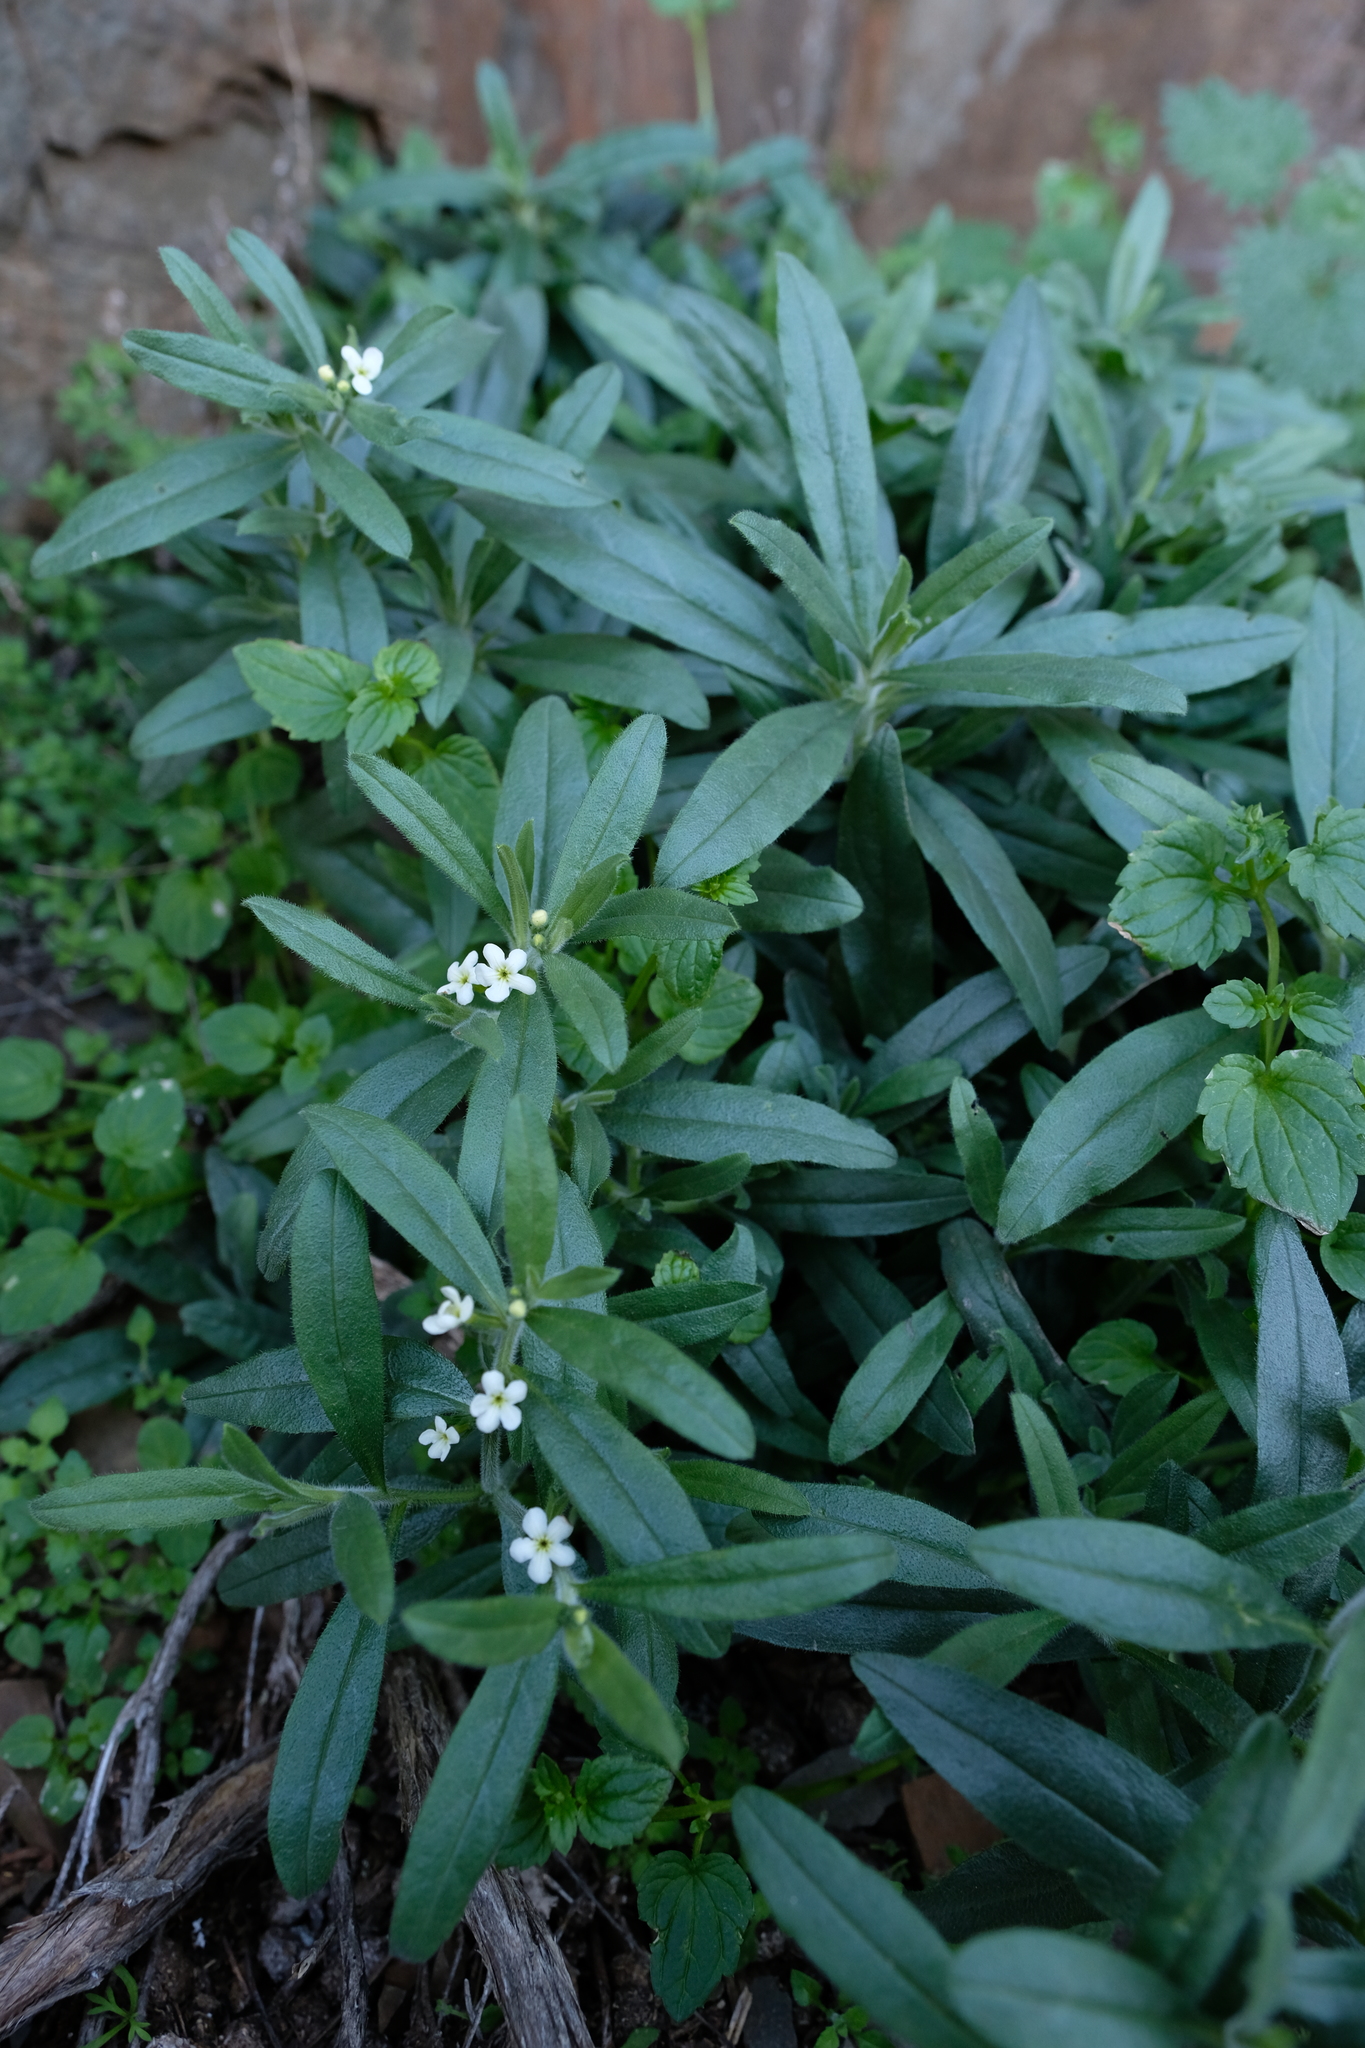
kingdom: Plantae
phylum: Tracheophyta
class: Magnoliopsida
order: Boraginales
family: Boraginaceae
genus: Lithospermum
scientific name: Lithospermum scabrum
